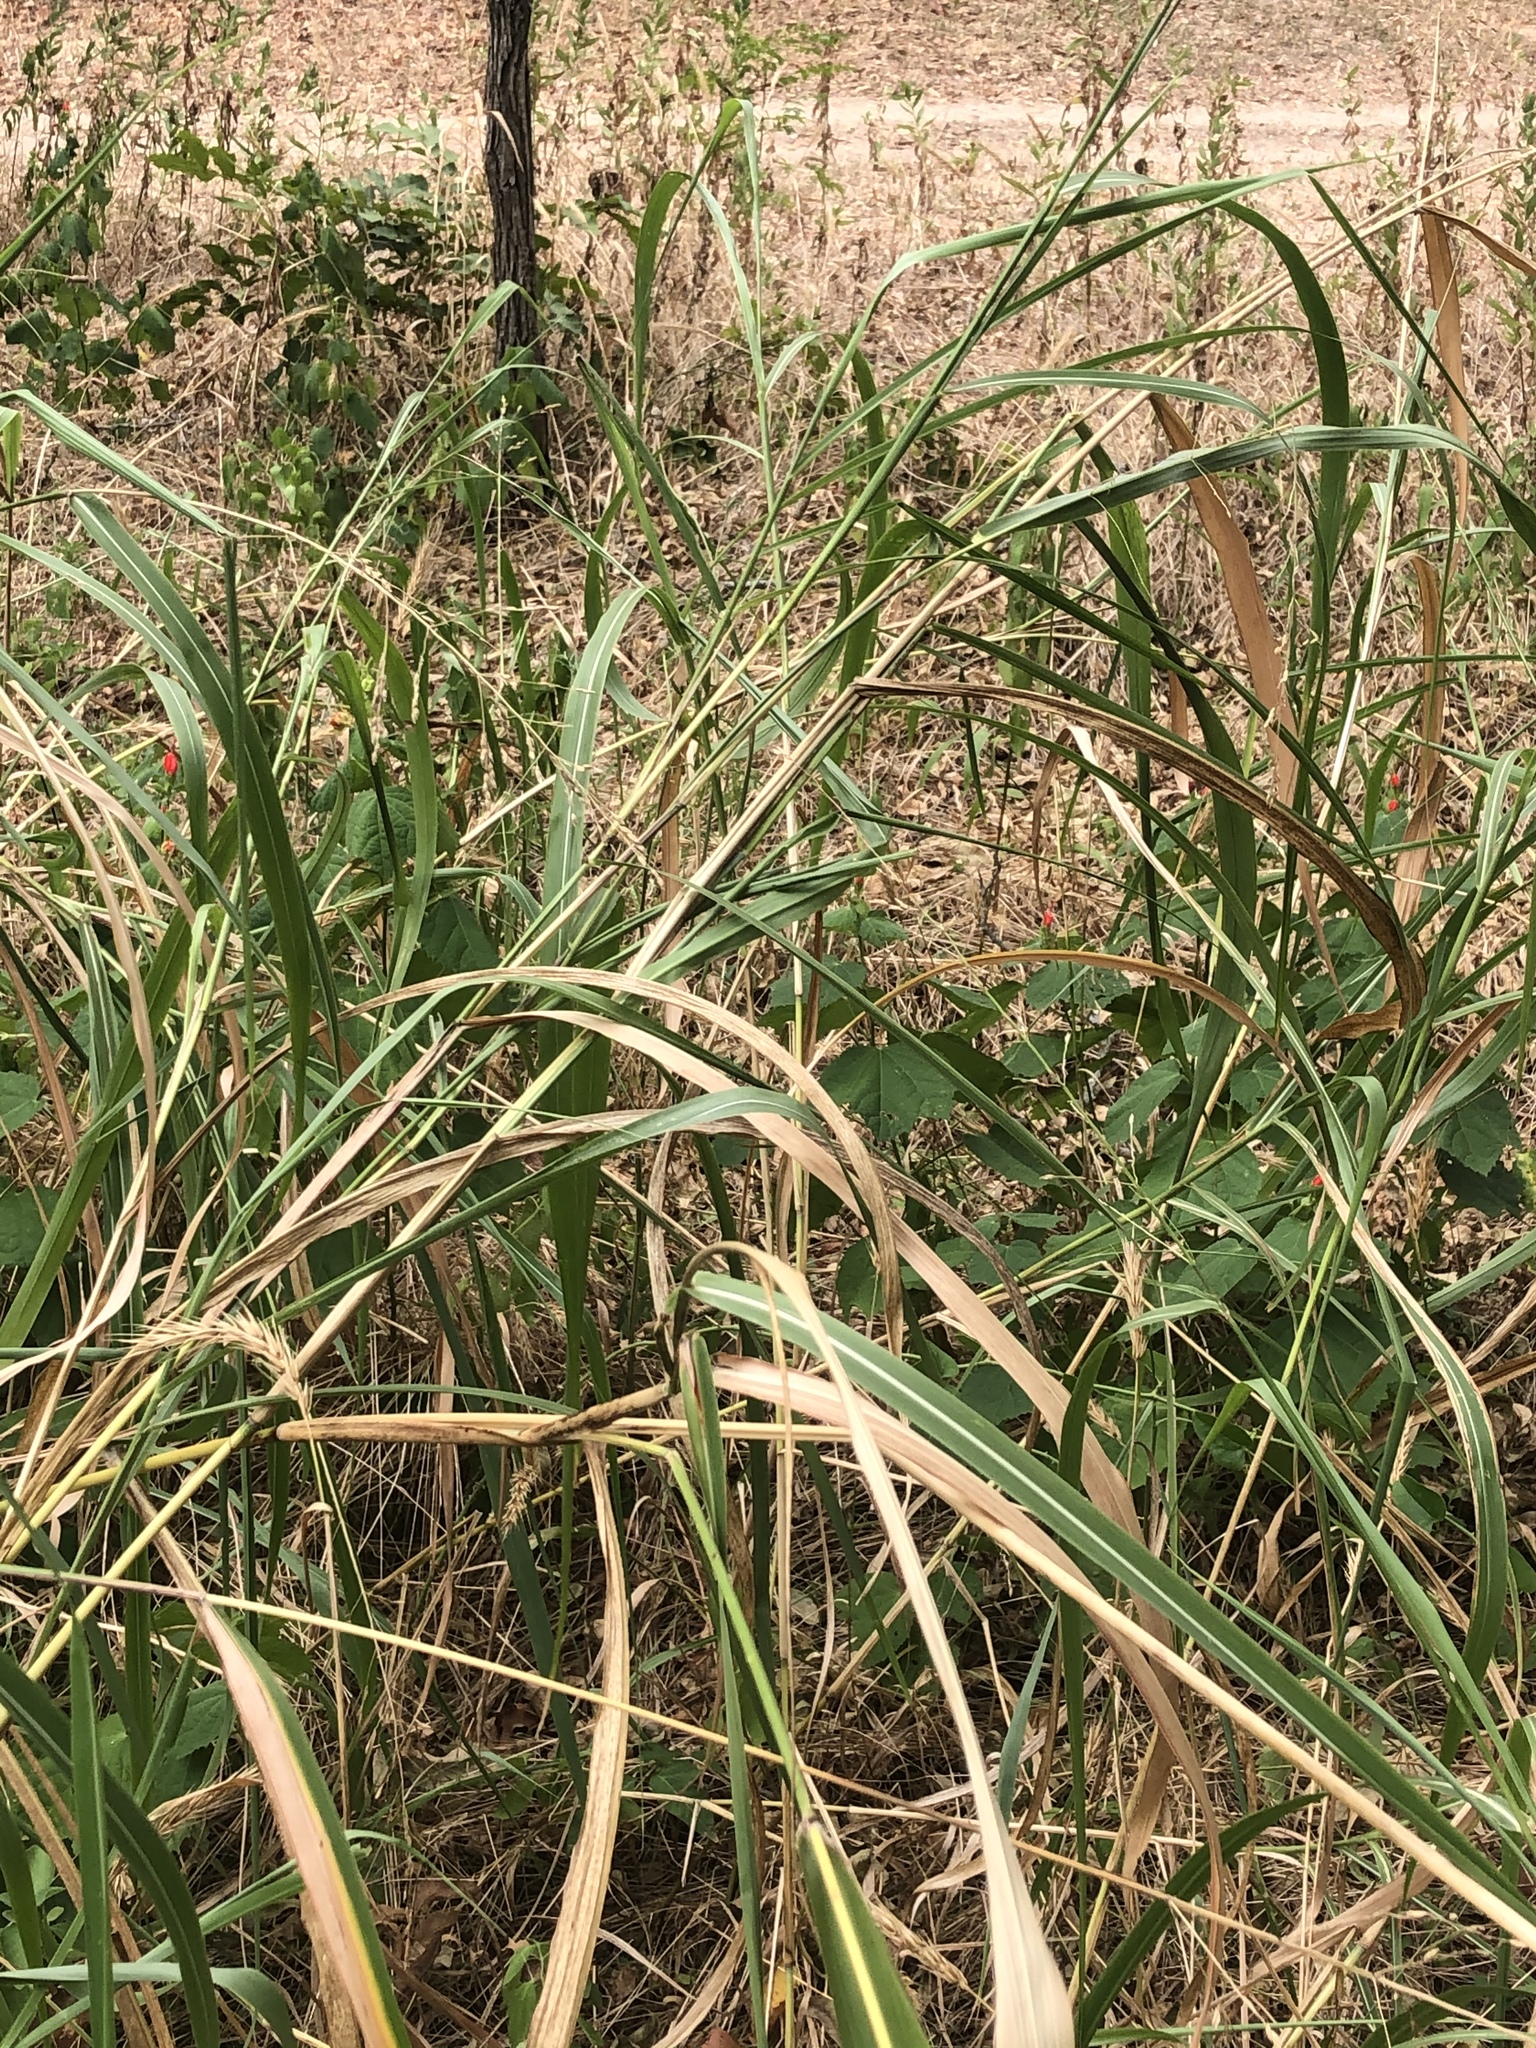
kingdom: Plantae
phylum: Tracheophyta
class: Liliopsida
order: Poales
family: Poaceae
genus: Sorghum
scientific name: Sorghum halepense
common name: Johnson-grass
